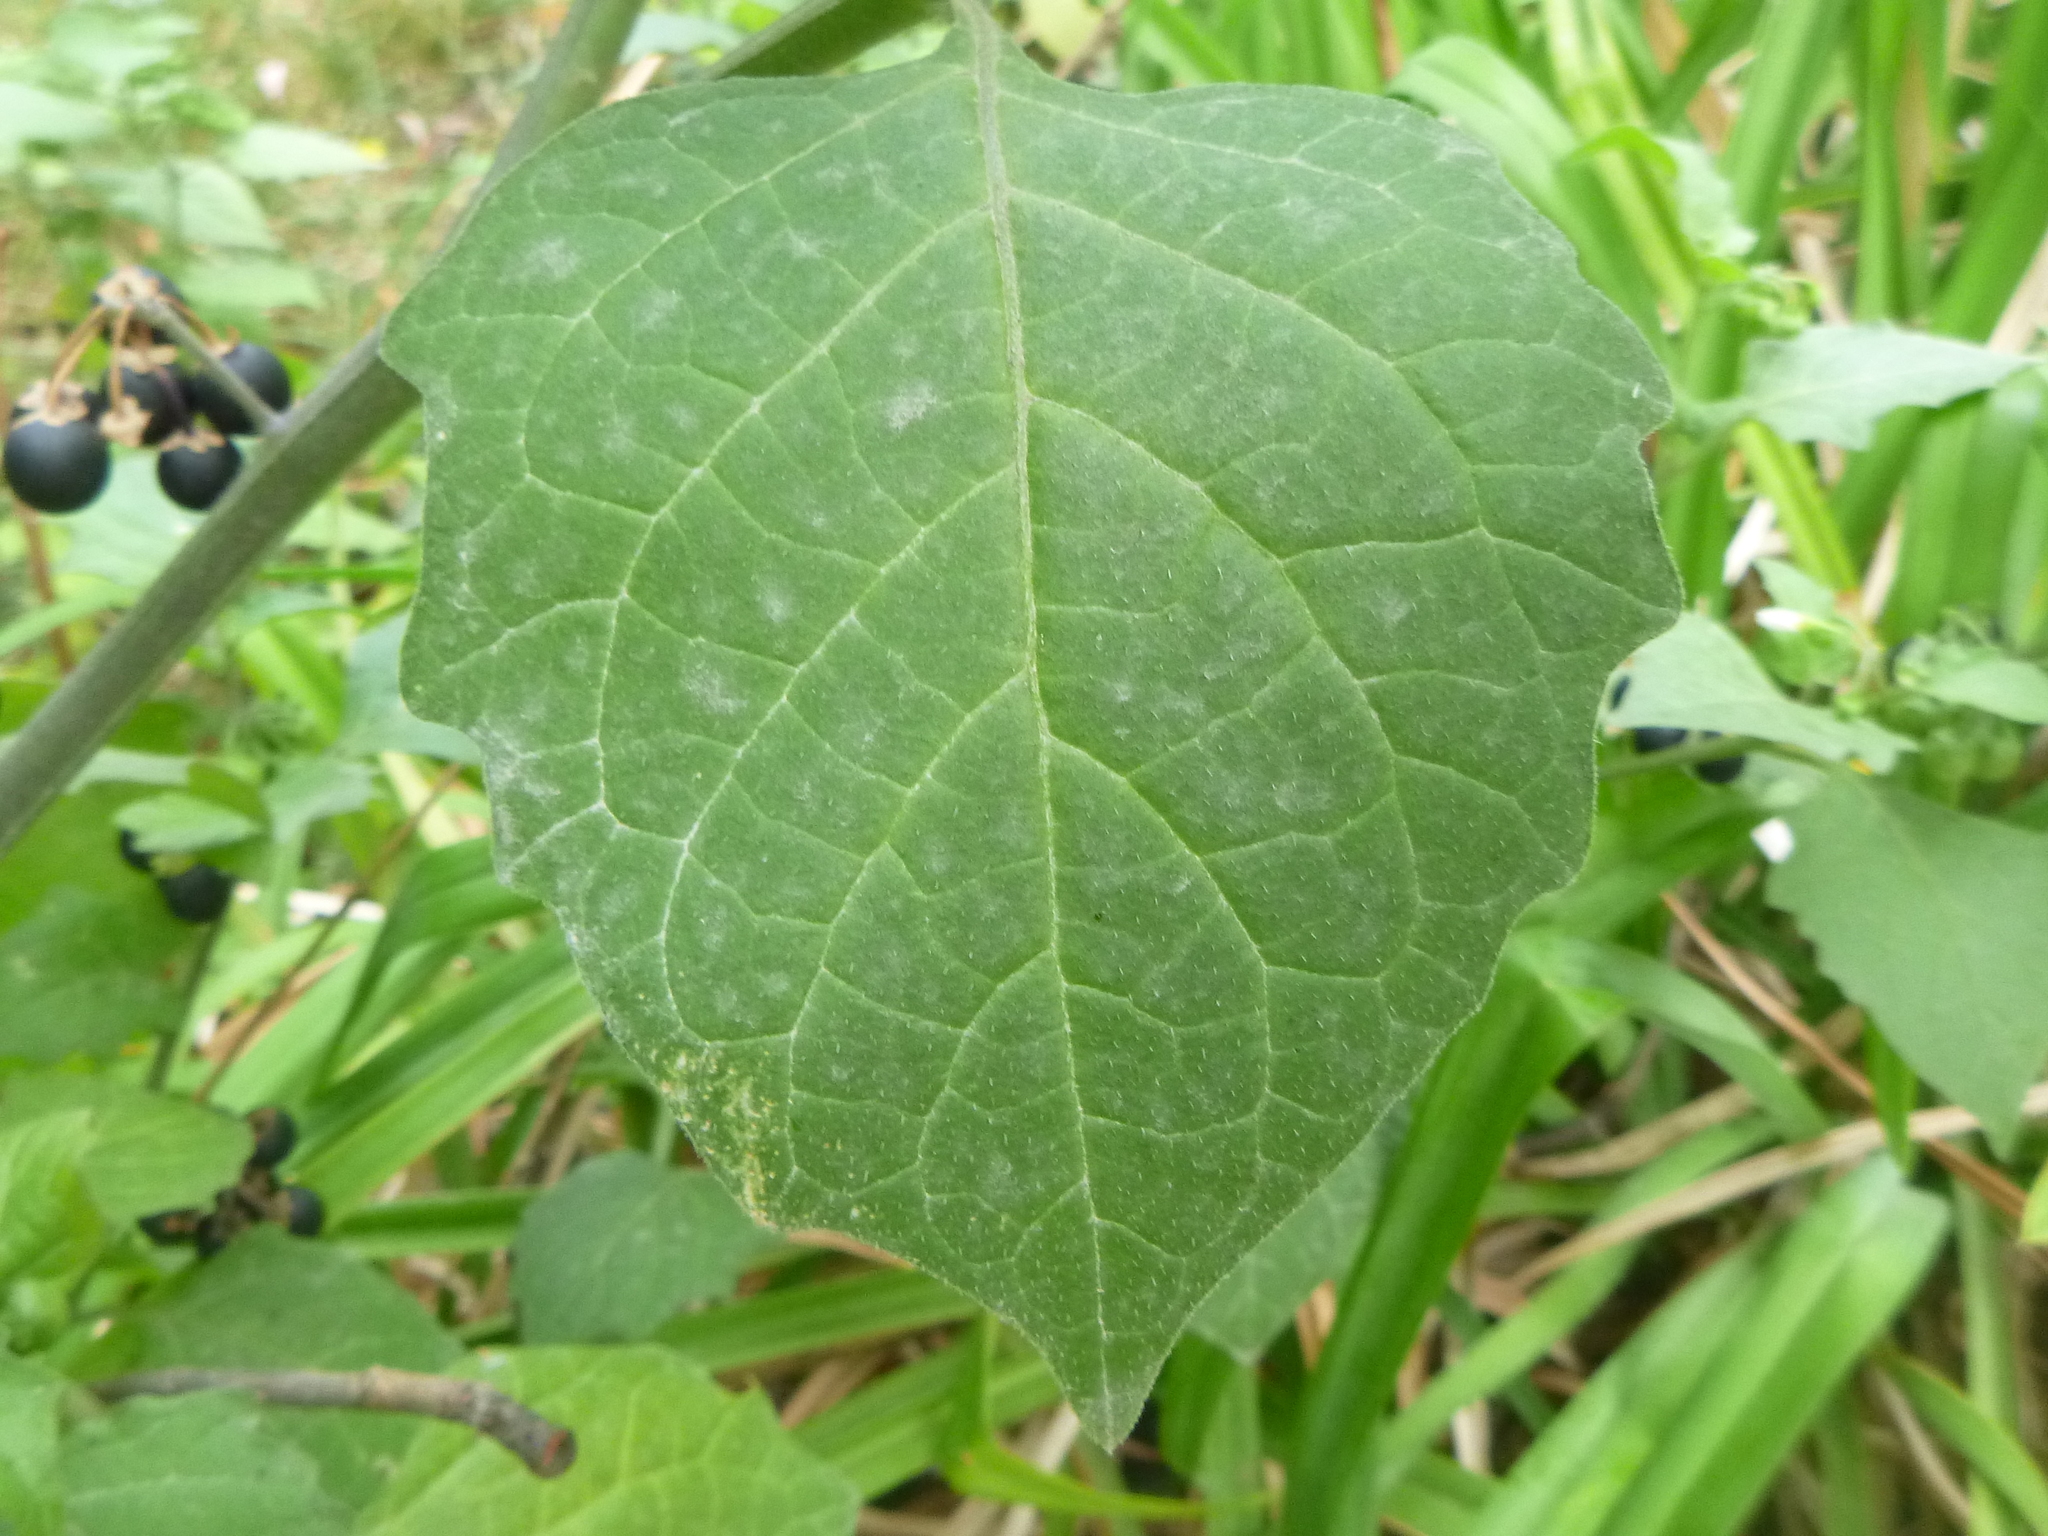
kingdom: Plantae
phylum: Tracheophyta
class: Magnoliopsida
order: Solanales
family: Solanaceae
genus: Solanum
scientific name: Solanum nigrum
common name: Black nightshade
